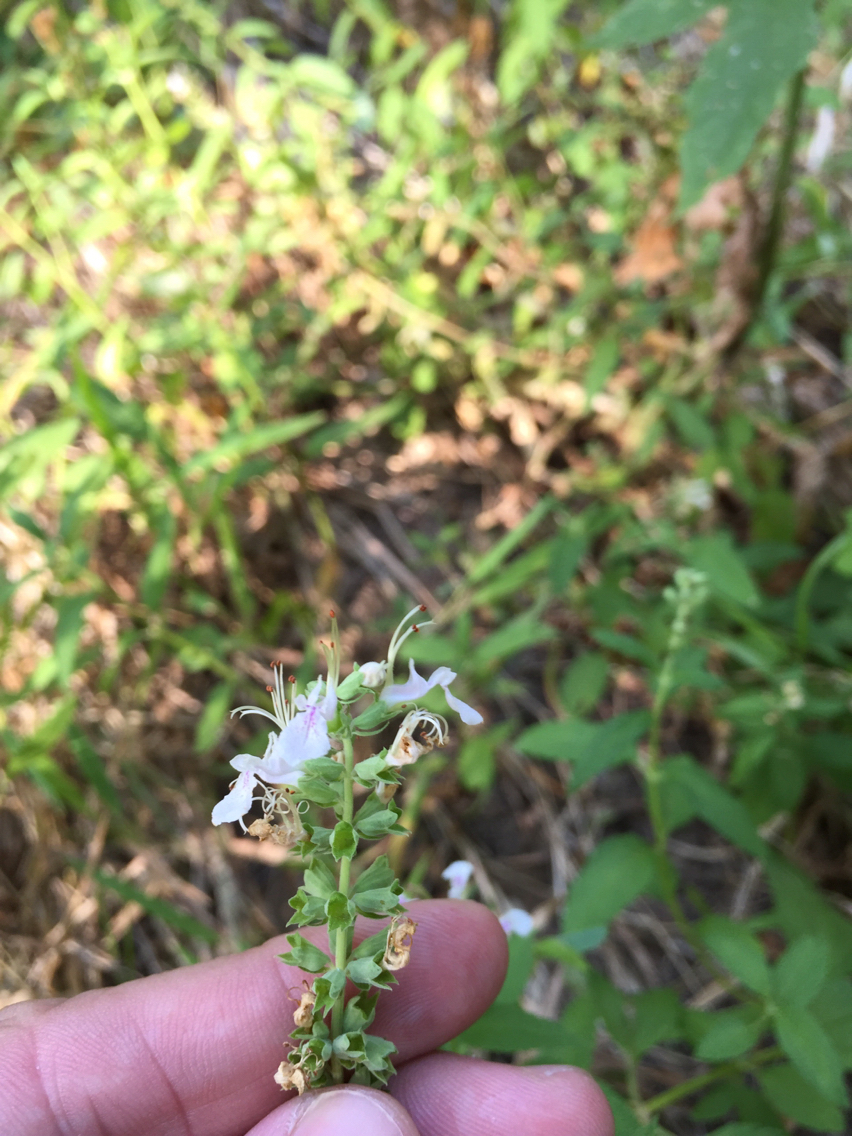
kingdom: Plantae
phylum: Tracheophyta
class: Magnoliopsida
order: Lamiales
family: Lamiaceae
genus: Teucrium
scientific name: Teucrium canadense
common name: American germander
